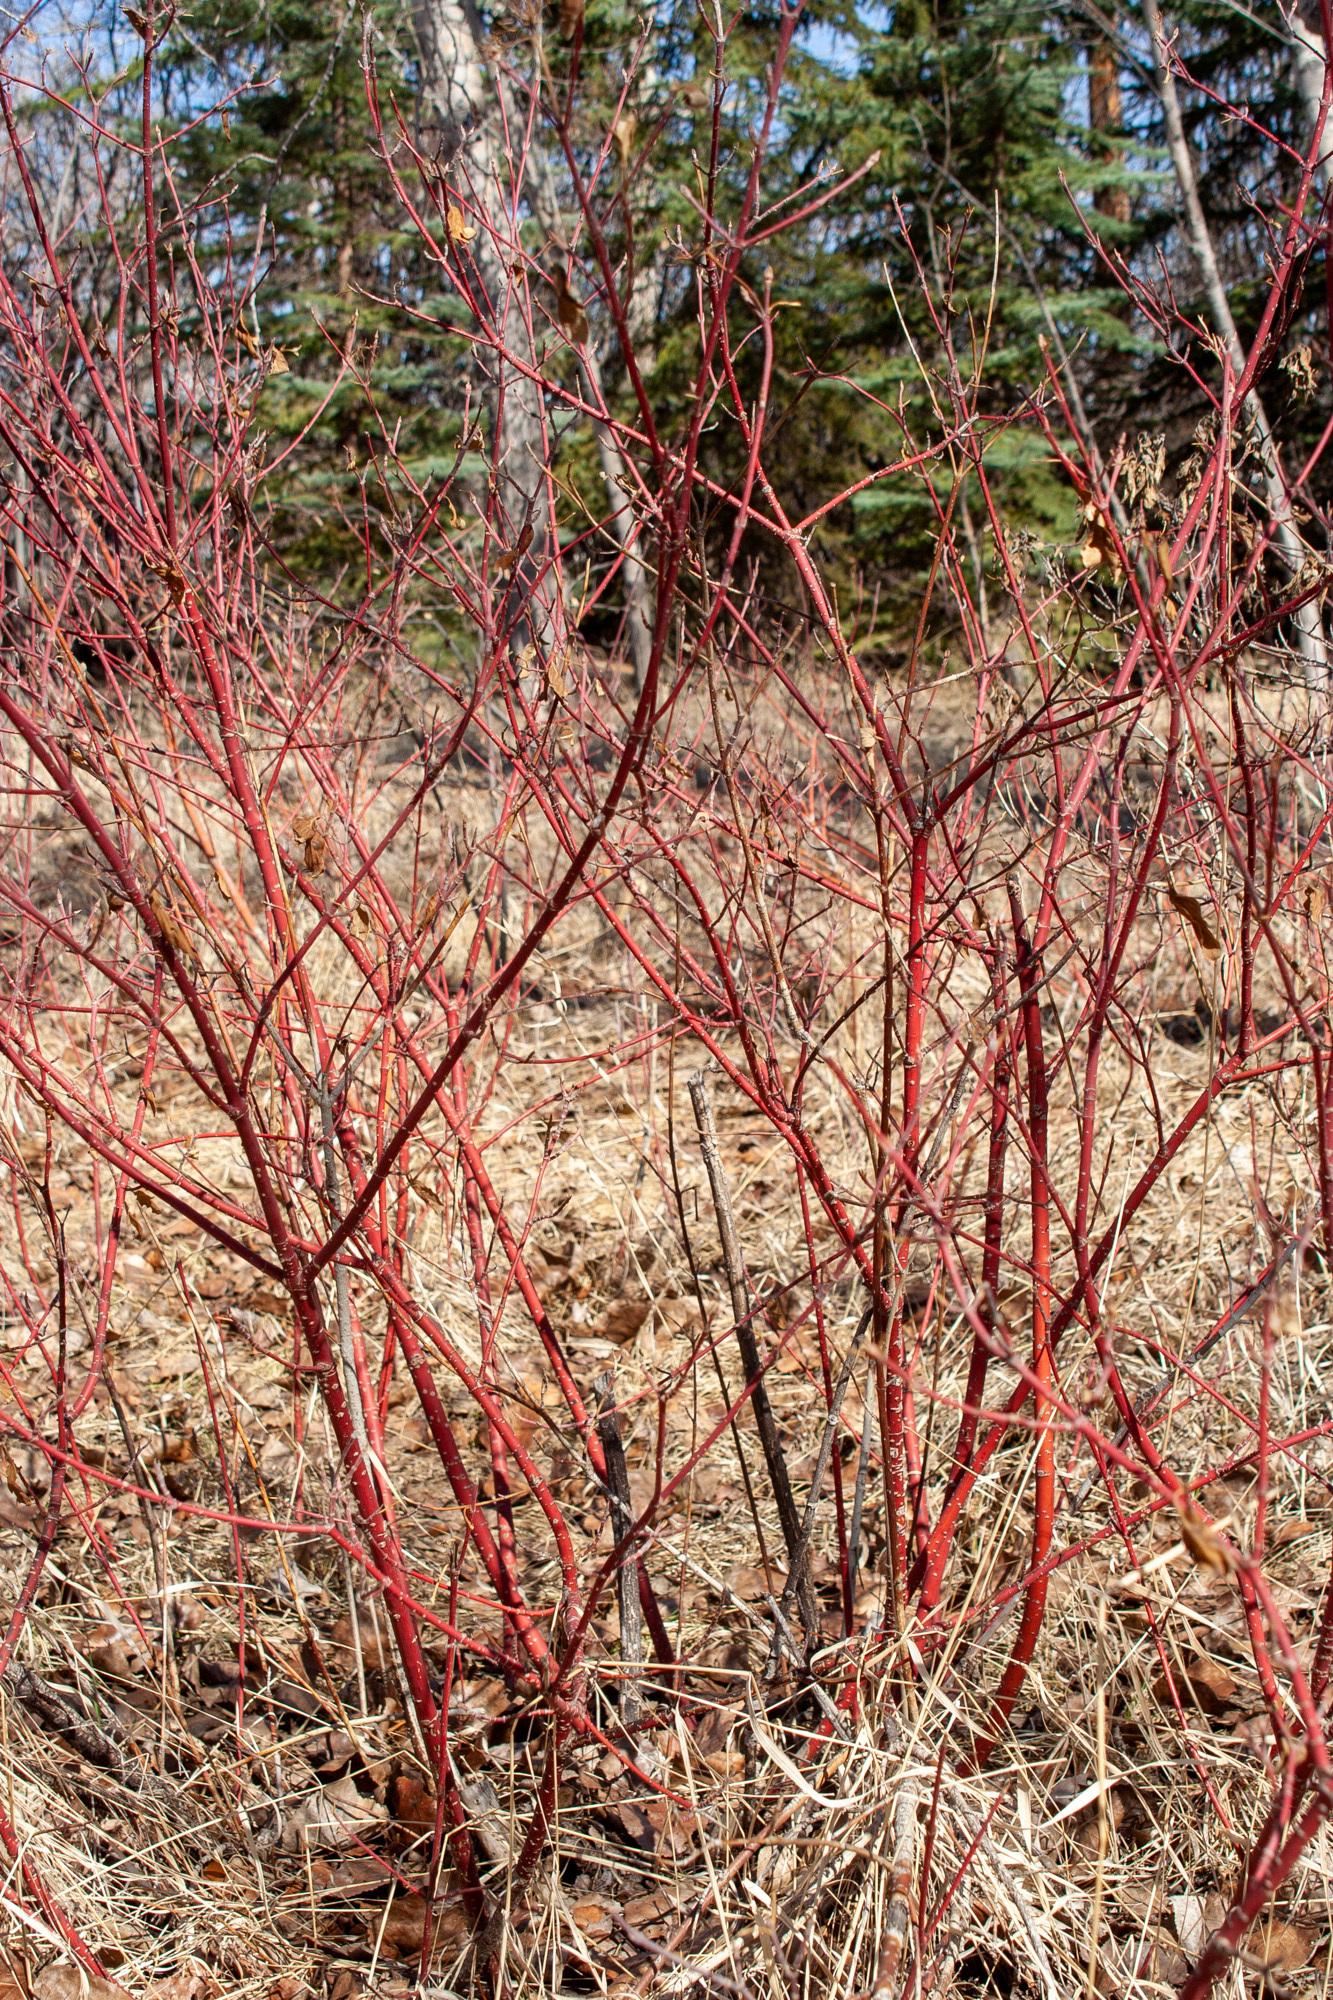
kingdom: Plantae
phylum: Tracheophyta
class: Magnoliopsida
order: Cornales
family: Cornaceae
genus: Cornus
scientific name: Cornus sericea
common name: Red-osier dogwood
